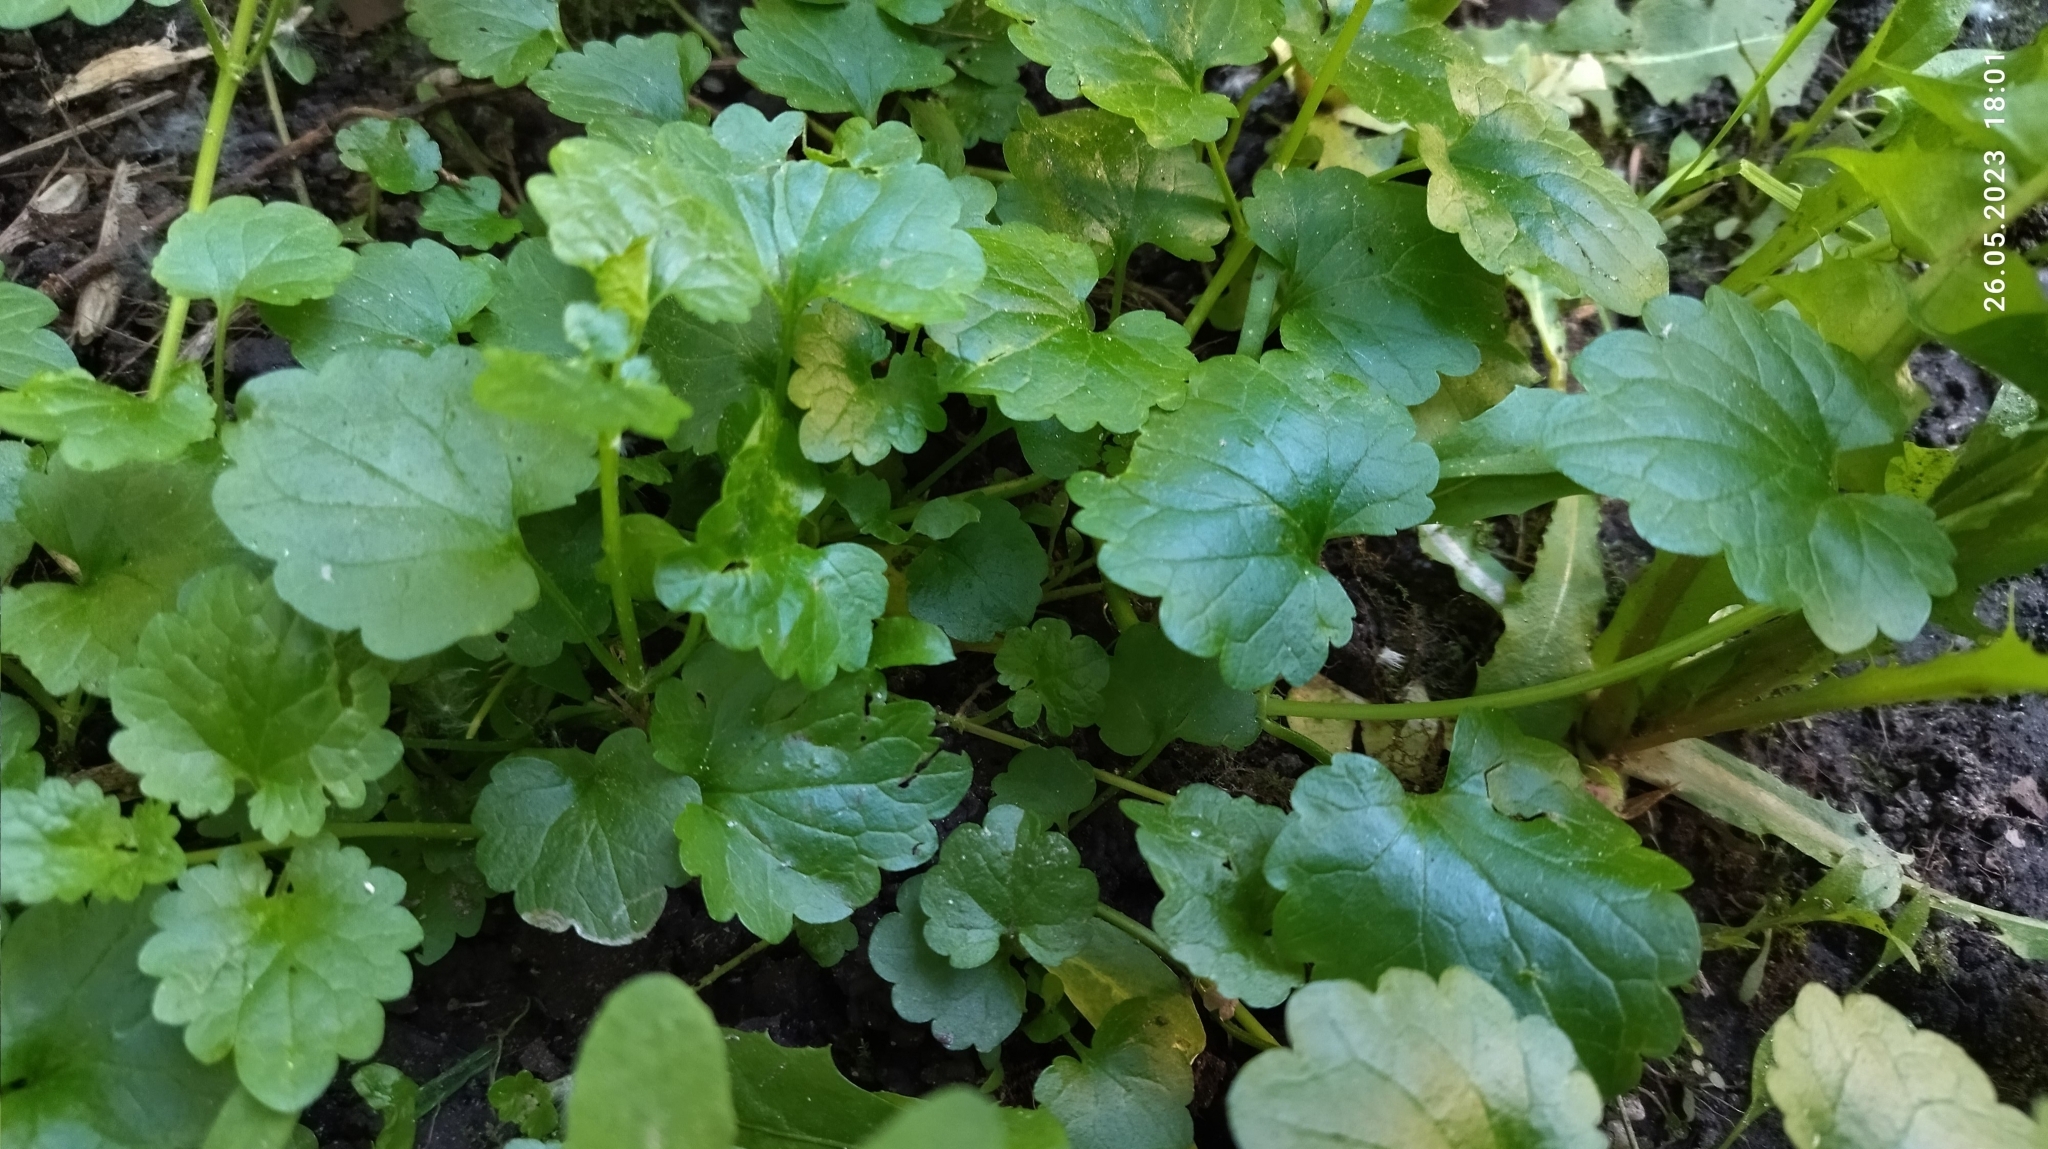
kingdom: Plantae
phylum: Tracheophyta
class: Magnoliopsida
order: Lamiales
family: Lamiaceae
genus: Glechoma
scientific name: Glechoma hederacea
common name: Ground ivy
